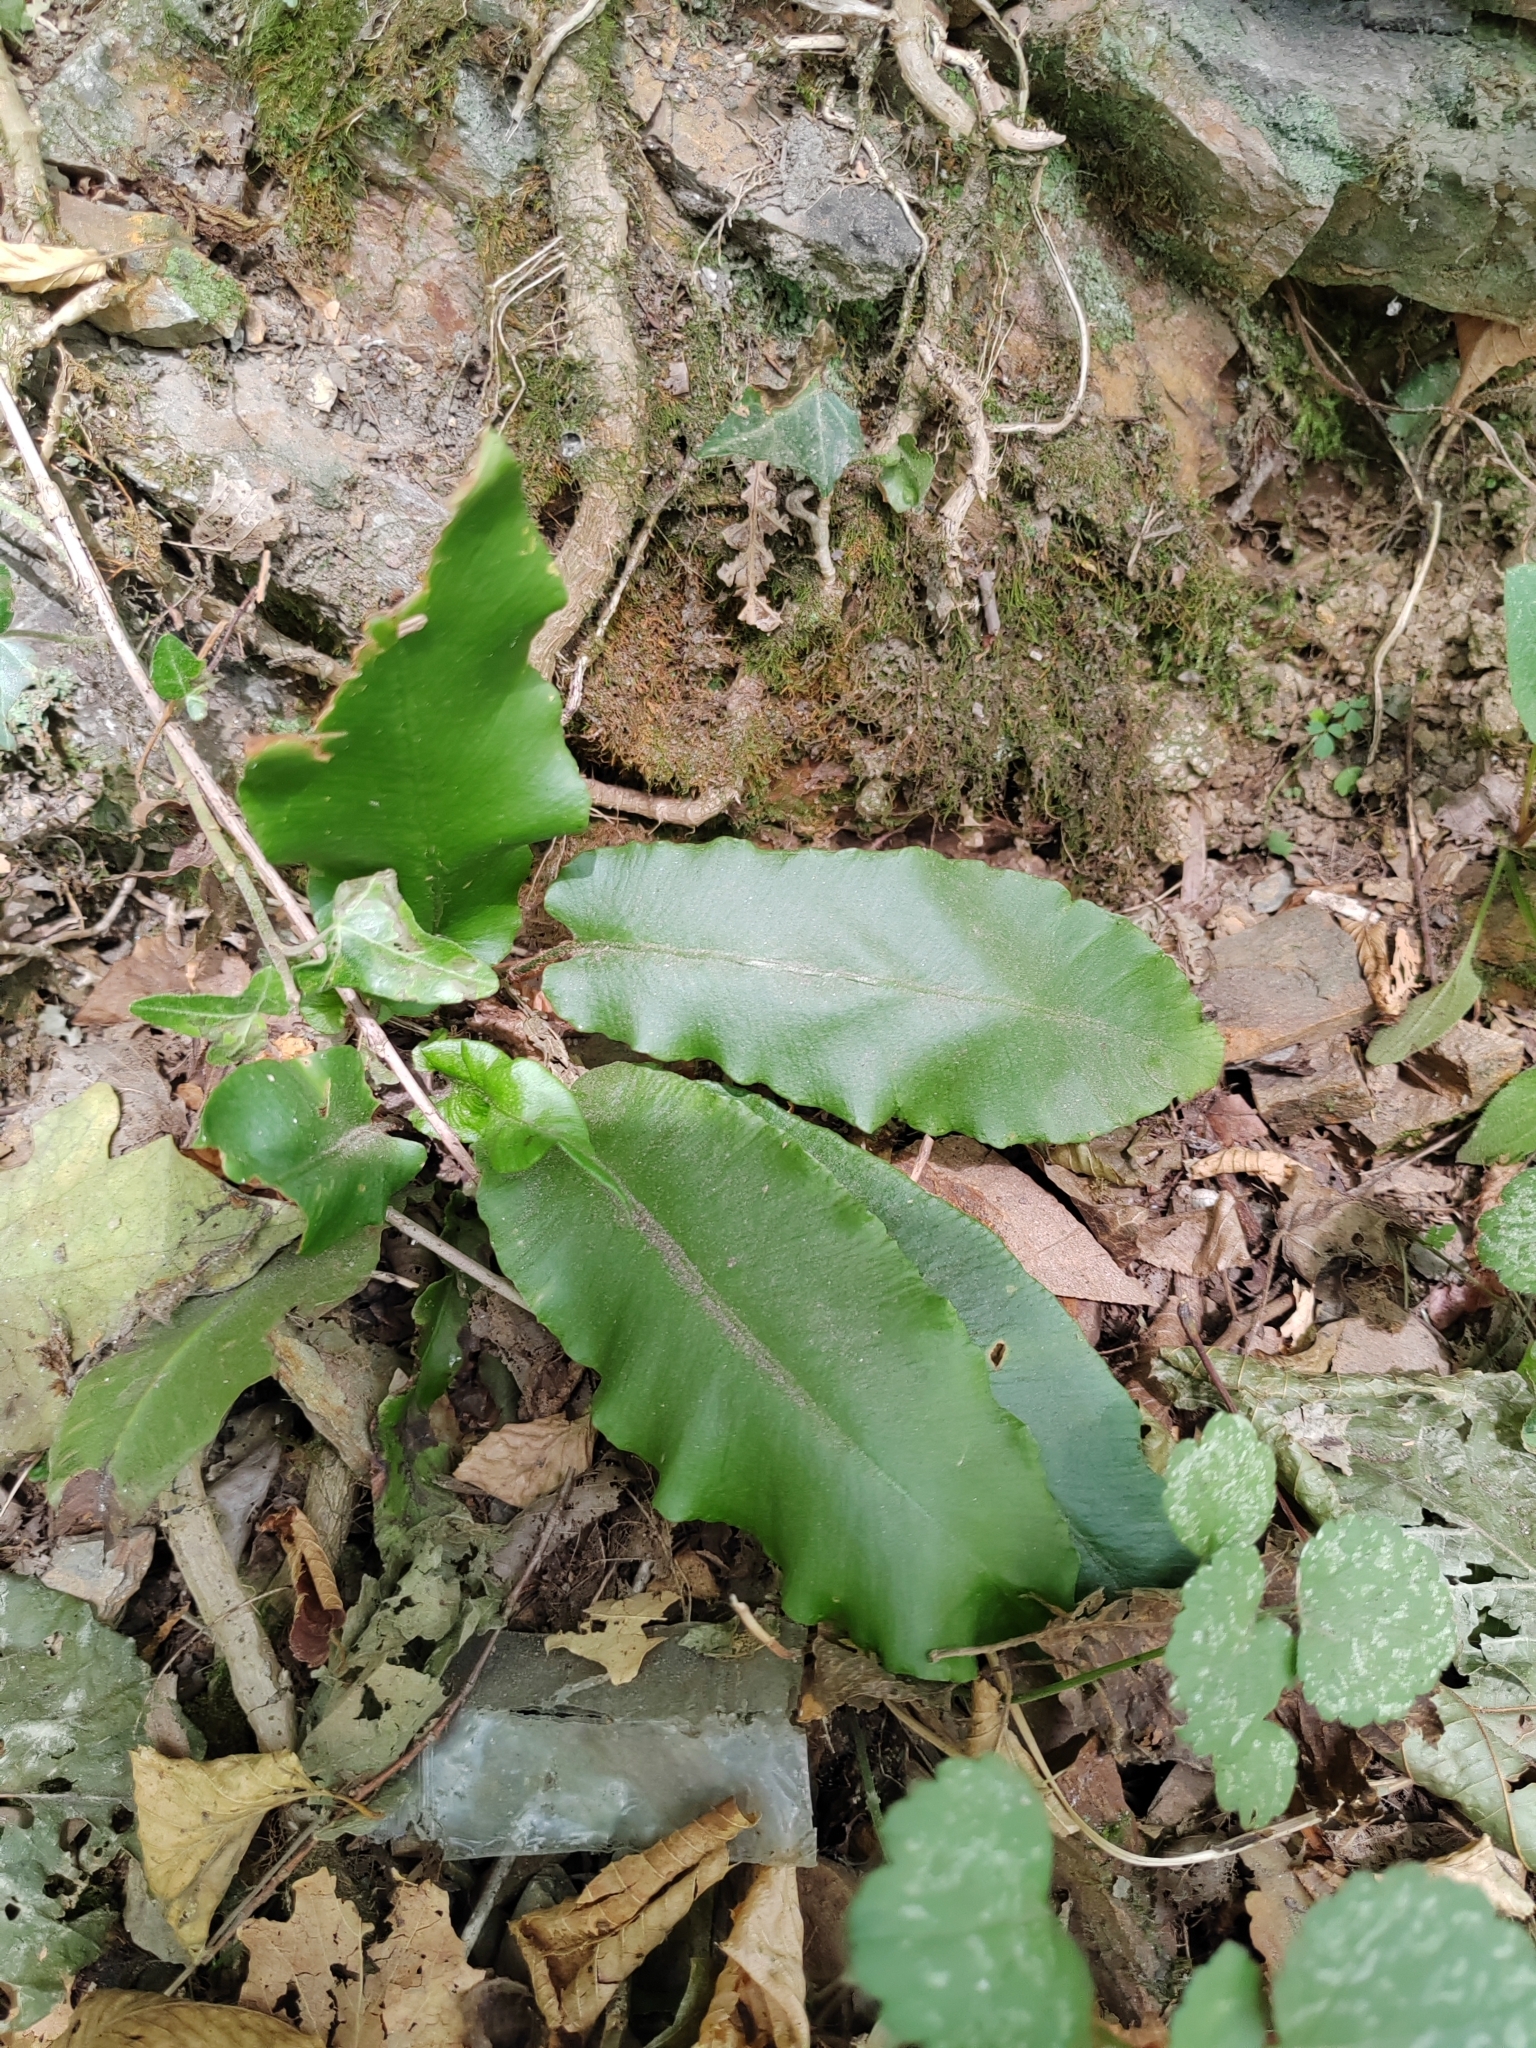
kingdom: Plantae
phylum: Tracheophyta
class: Polypodiopsida
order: Polypodiales
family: Aspleniaceae
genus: Asplenium
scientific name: Asplenium scolopendrium
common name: Hart's-tongue fern
